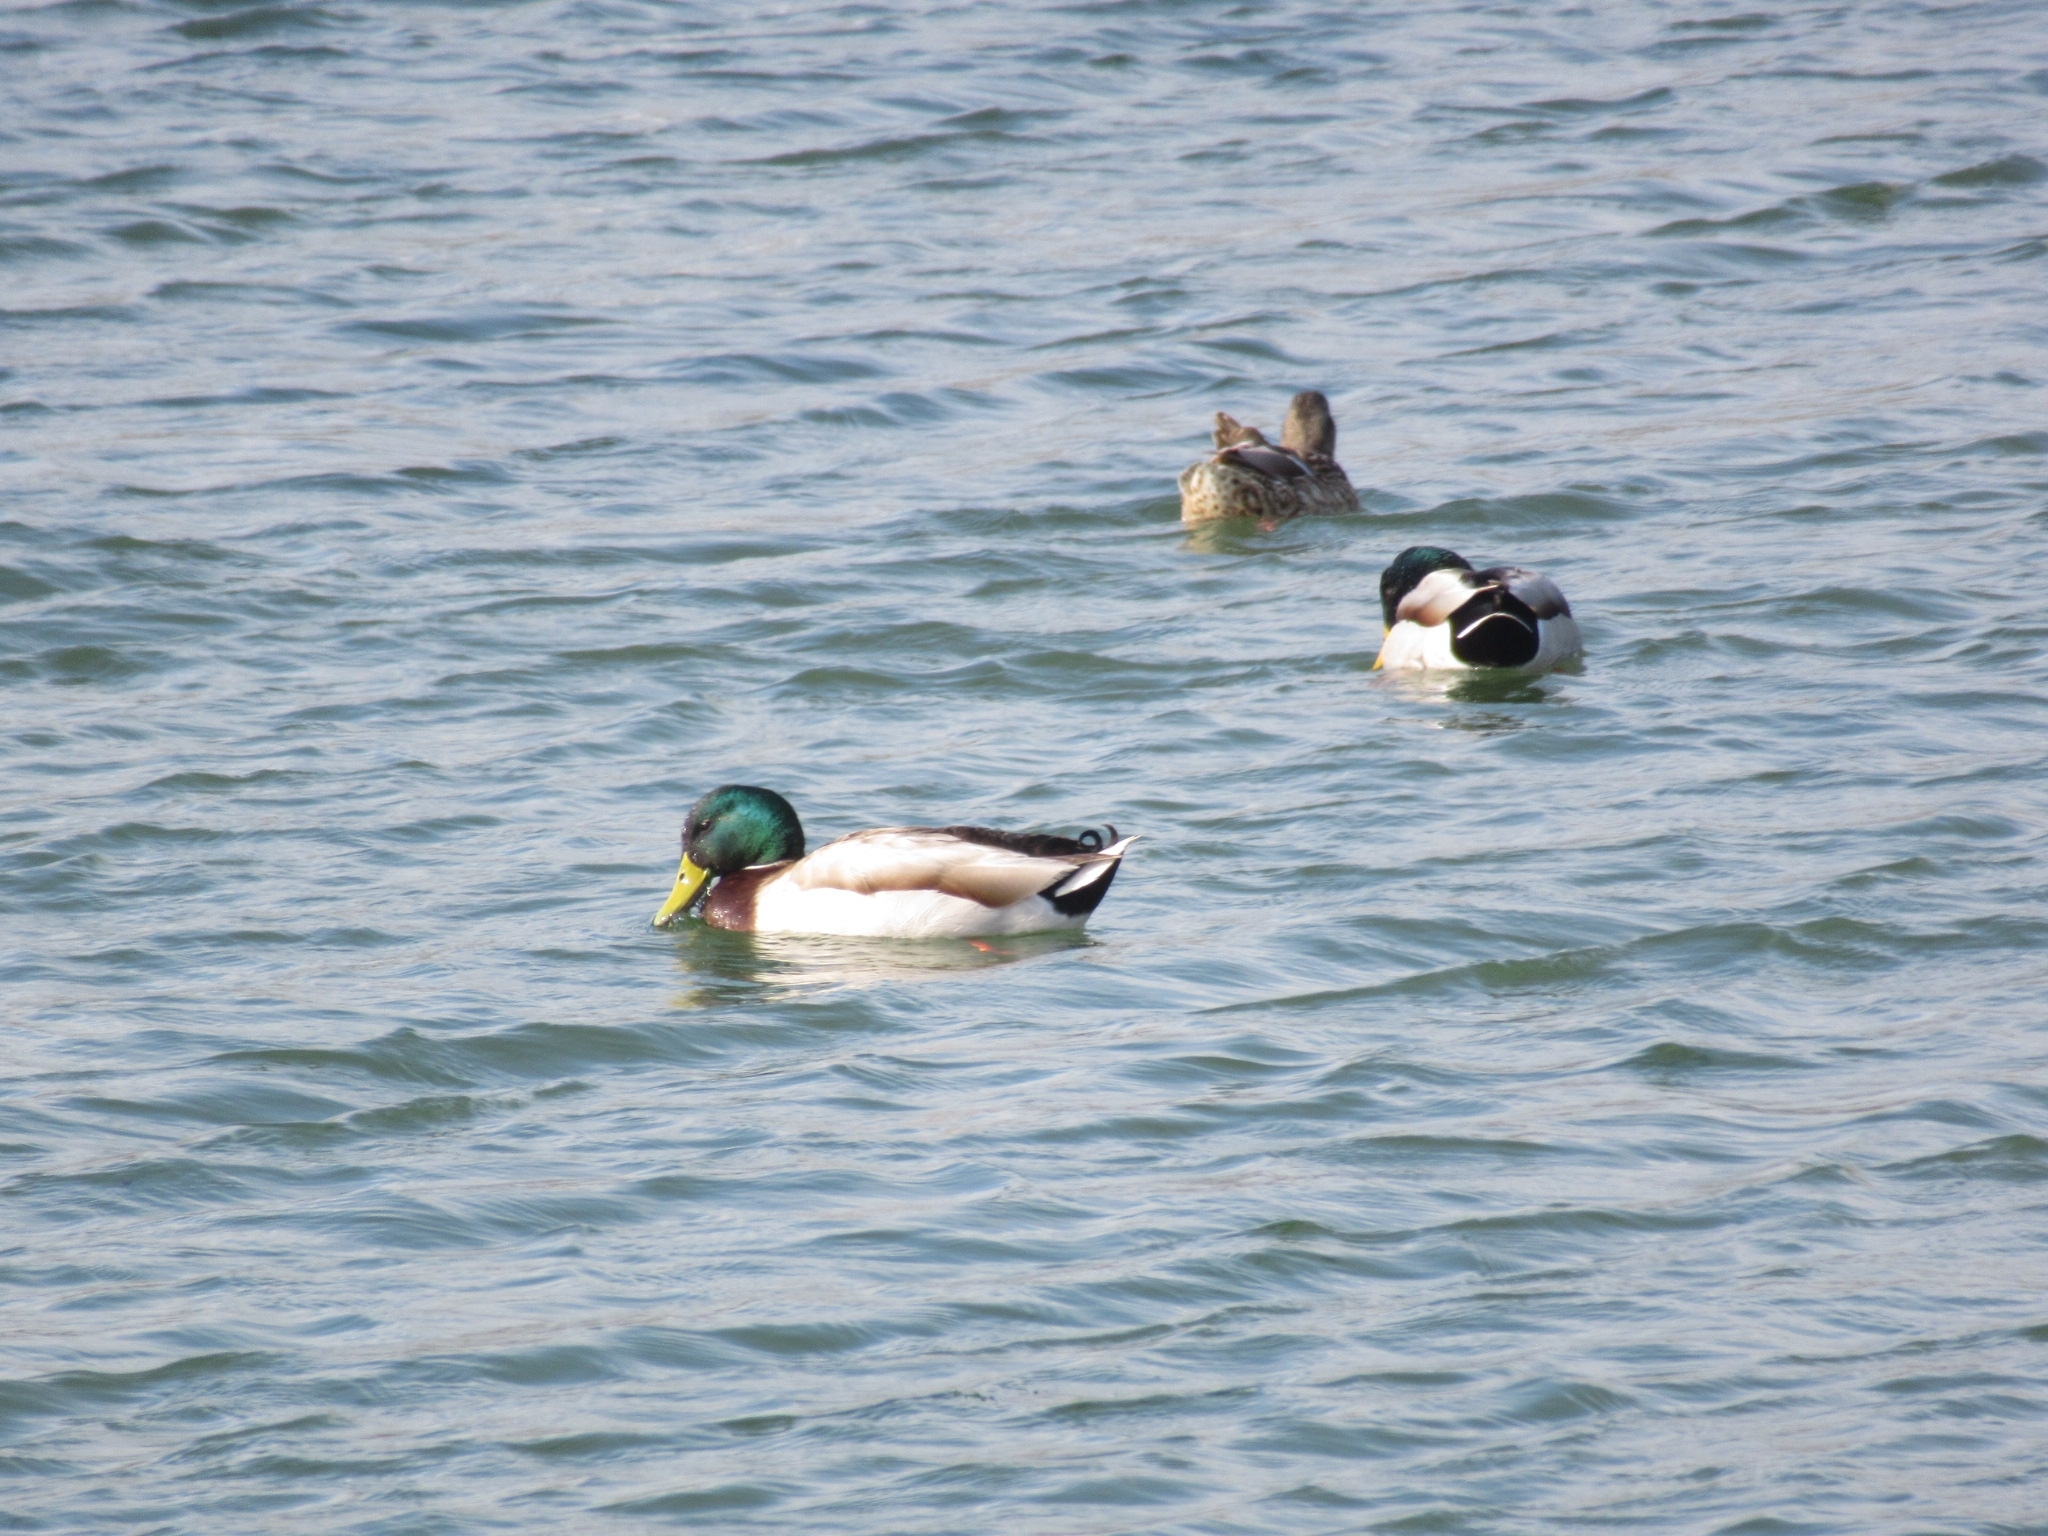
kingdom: Animalia
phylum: Chordata
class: Aves
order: Anseriformes
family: Anatidae
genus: Anas
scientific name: Anas platyrhynchos
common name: Mallard
